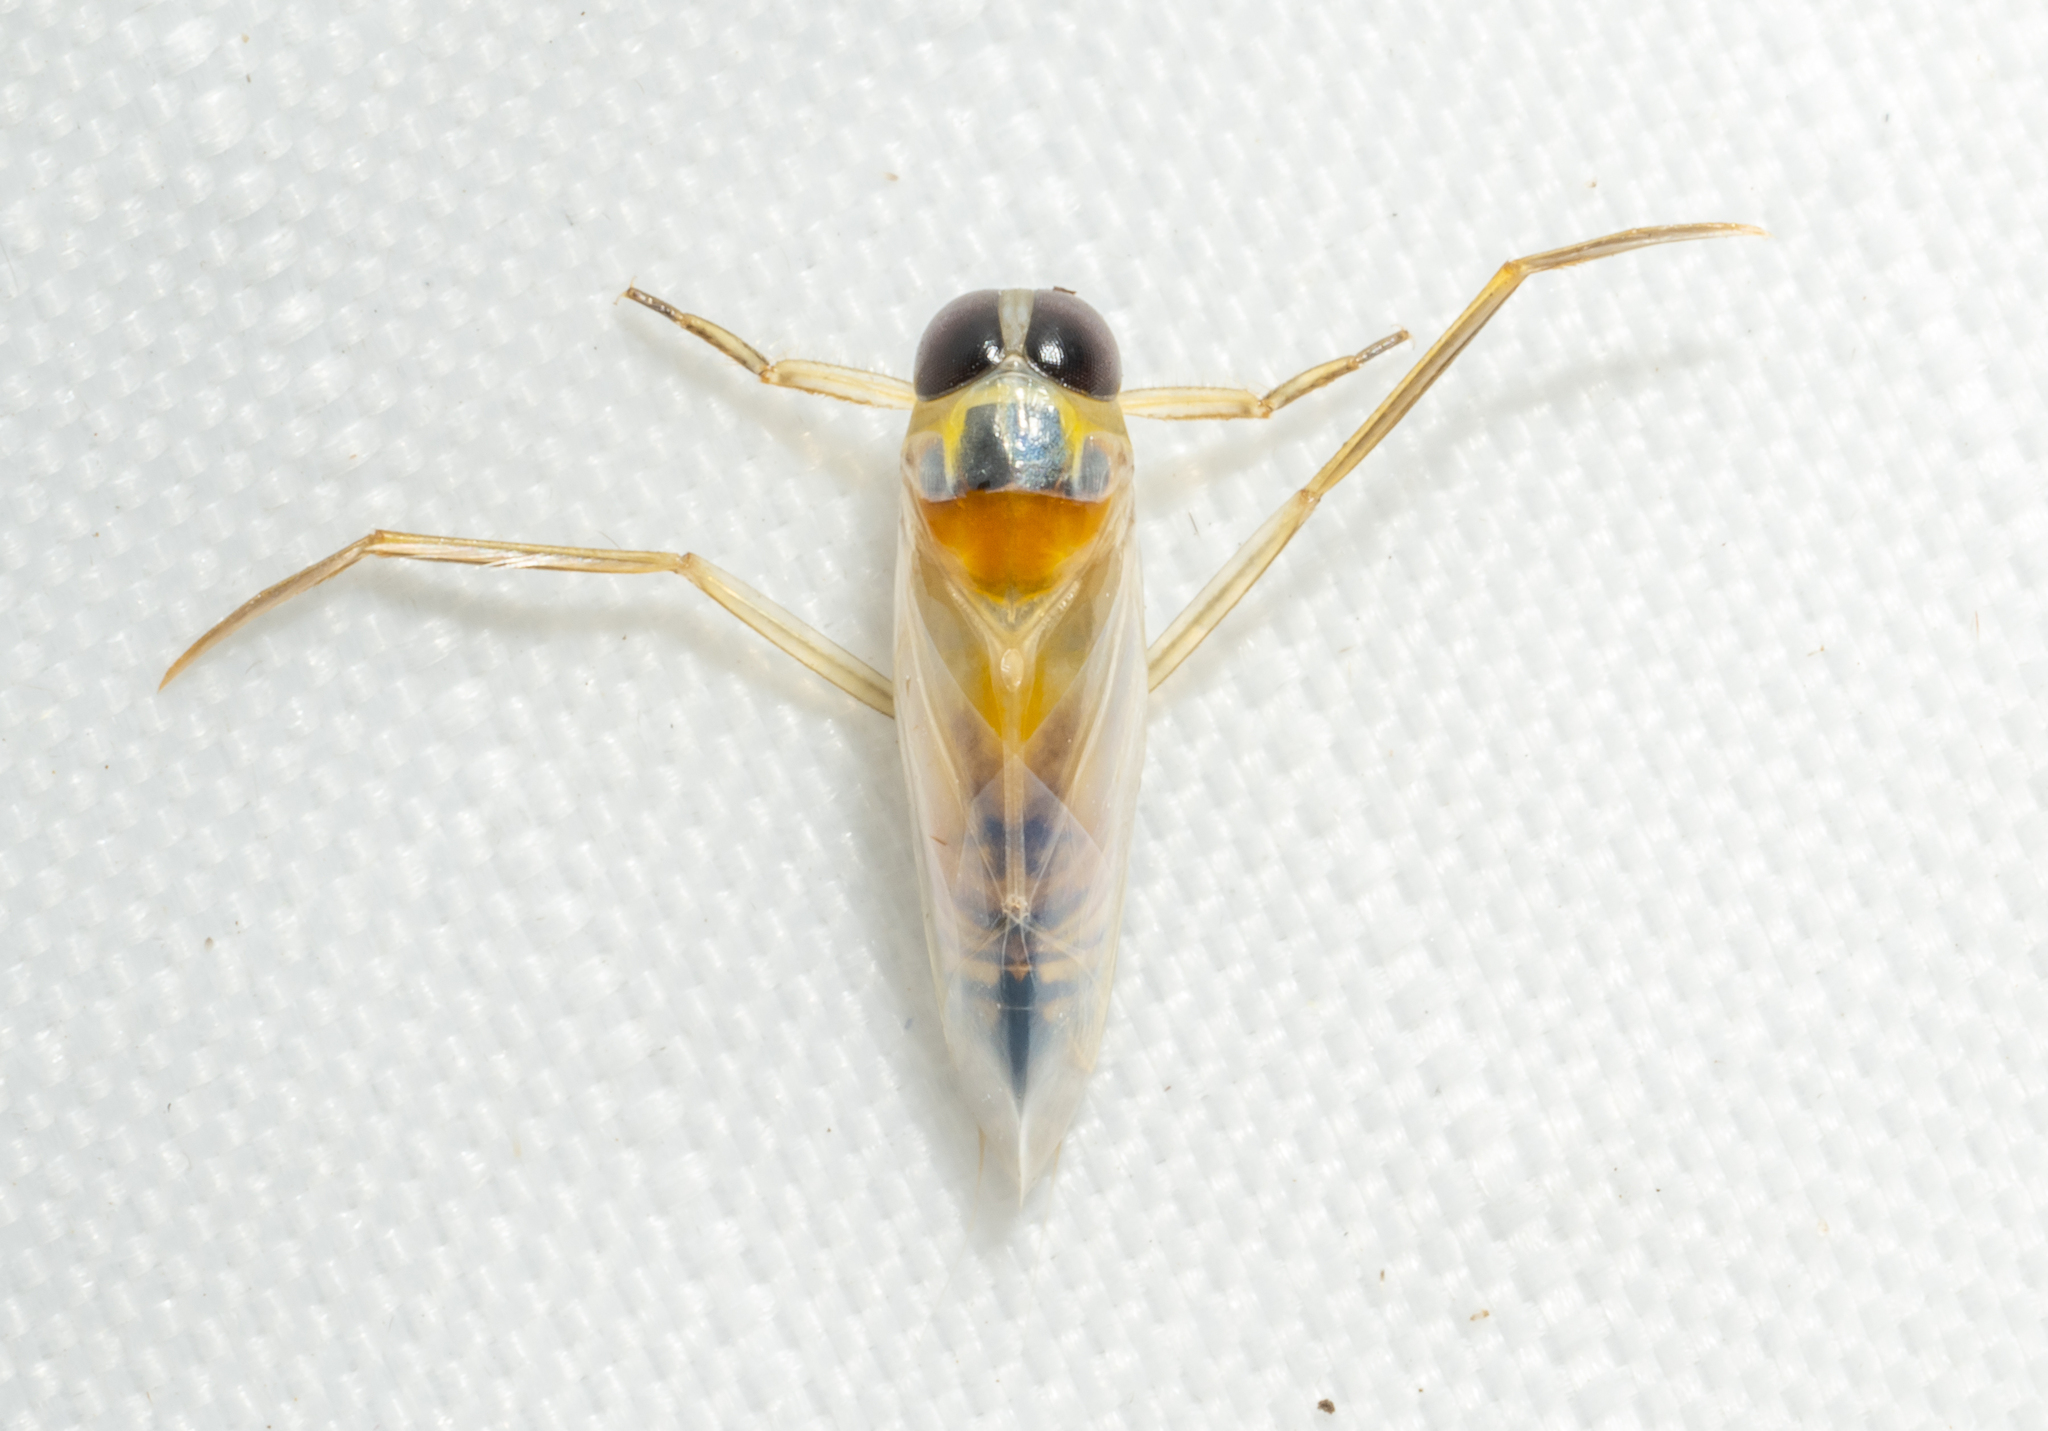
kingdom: Animalia
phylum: Arthropoda
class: Insecta
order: Hemiptera
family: Notonectidae
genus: Buenoa
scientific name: Buenoa
